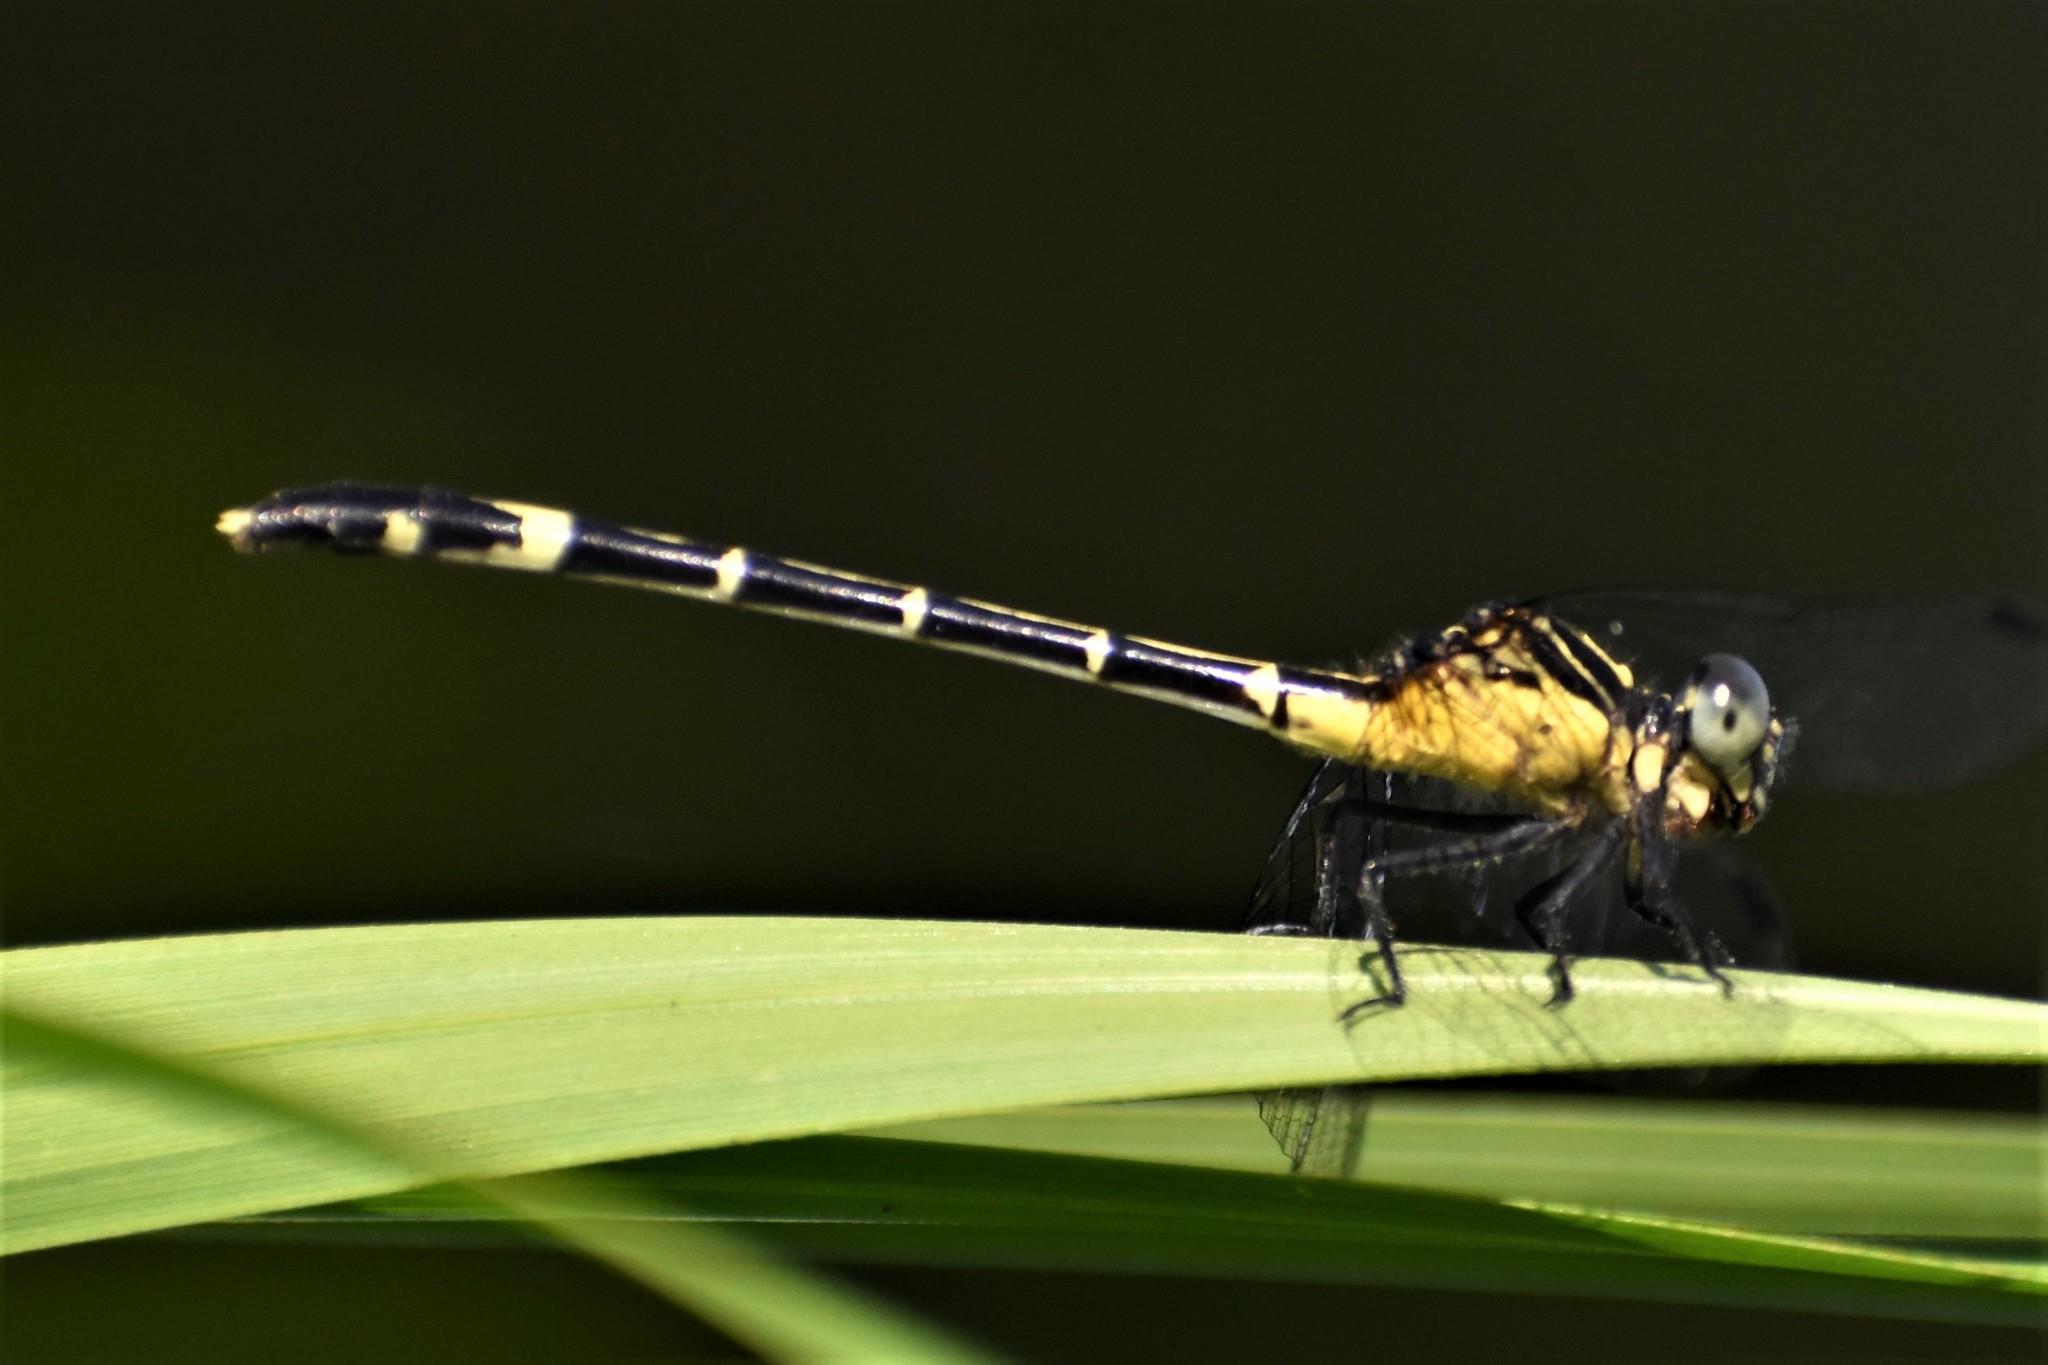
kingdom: Animalia
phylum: Arthropoda
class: Insecta
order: Odonata
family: Gomphidae
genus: Austrogomphus
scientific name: Austrogomphus prasinus
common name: Lemon-tipped hunter
